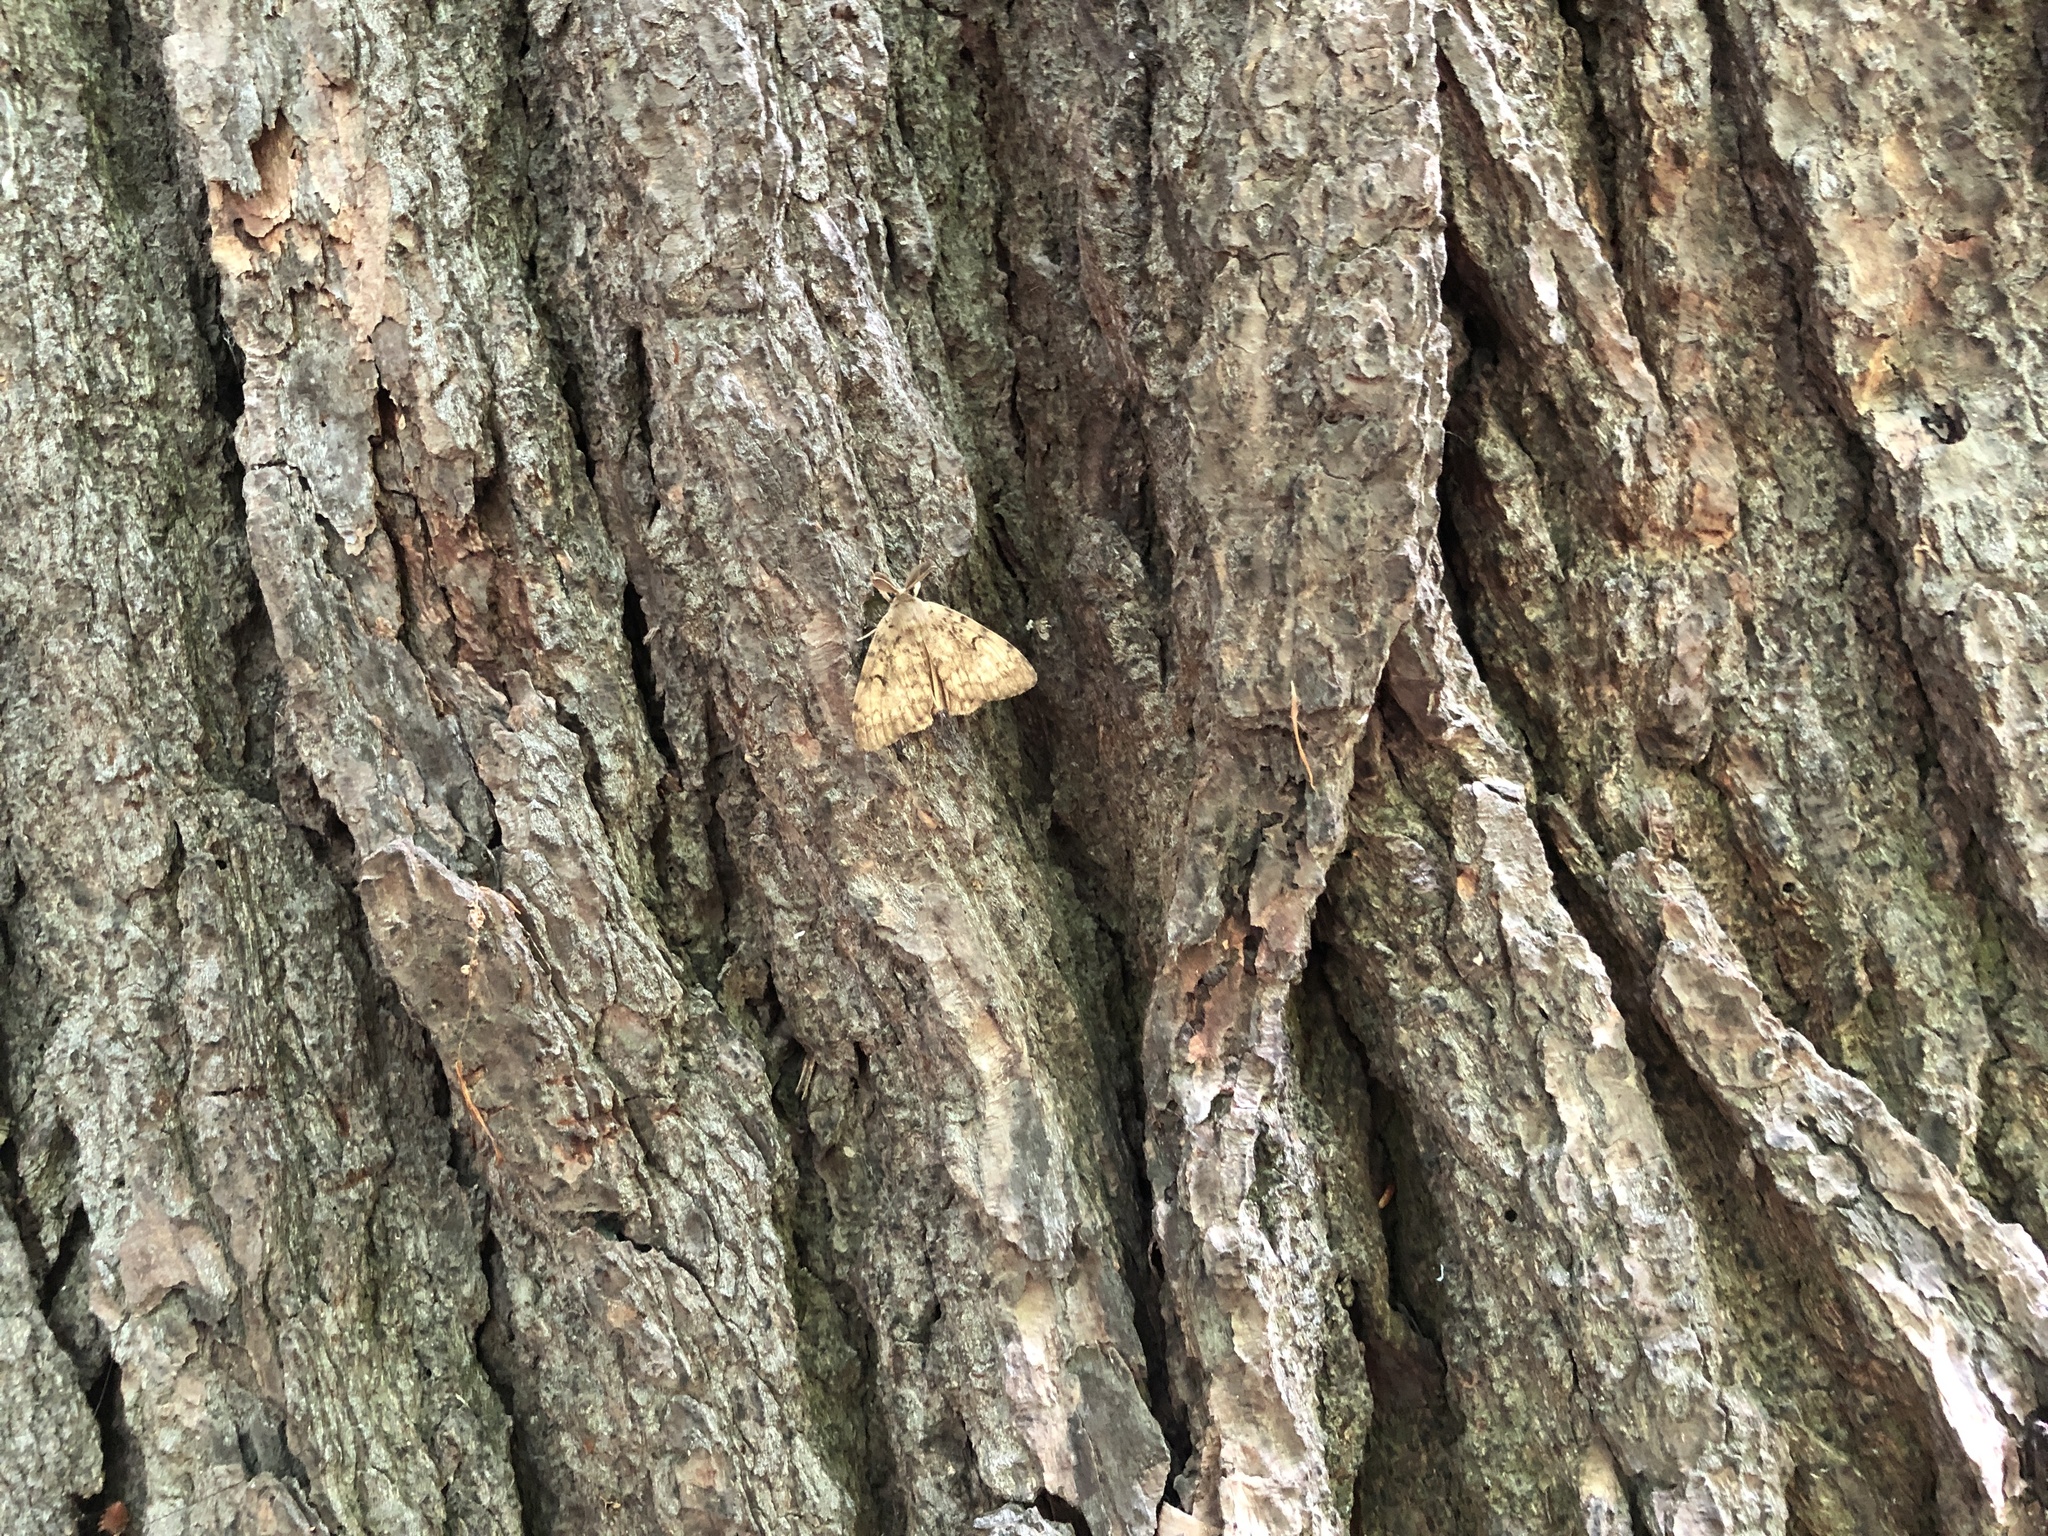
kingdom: Animalia
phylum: Arthropoda
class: Insecta
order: Lepidoptera
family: Erebidae
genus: Lymantria
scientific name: Lymantria dispar
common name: Gypsy moth
